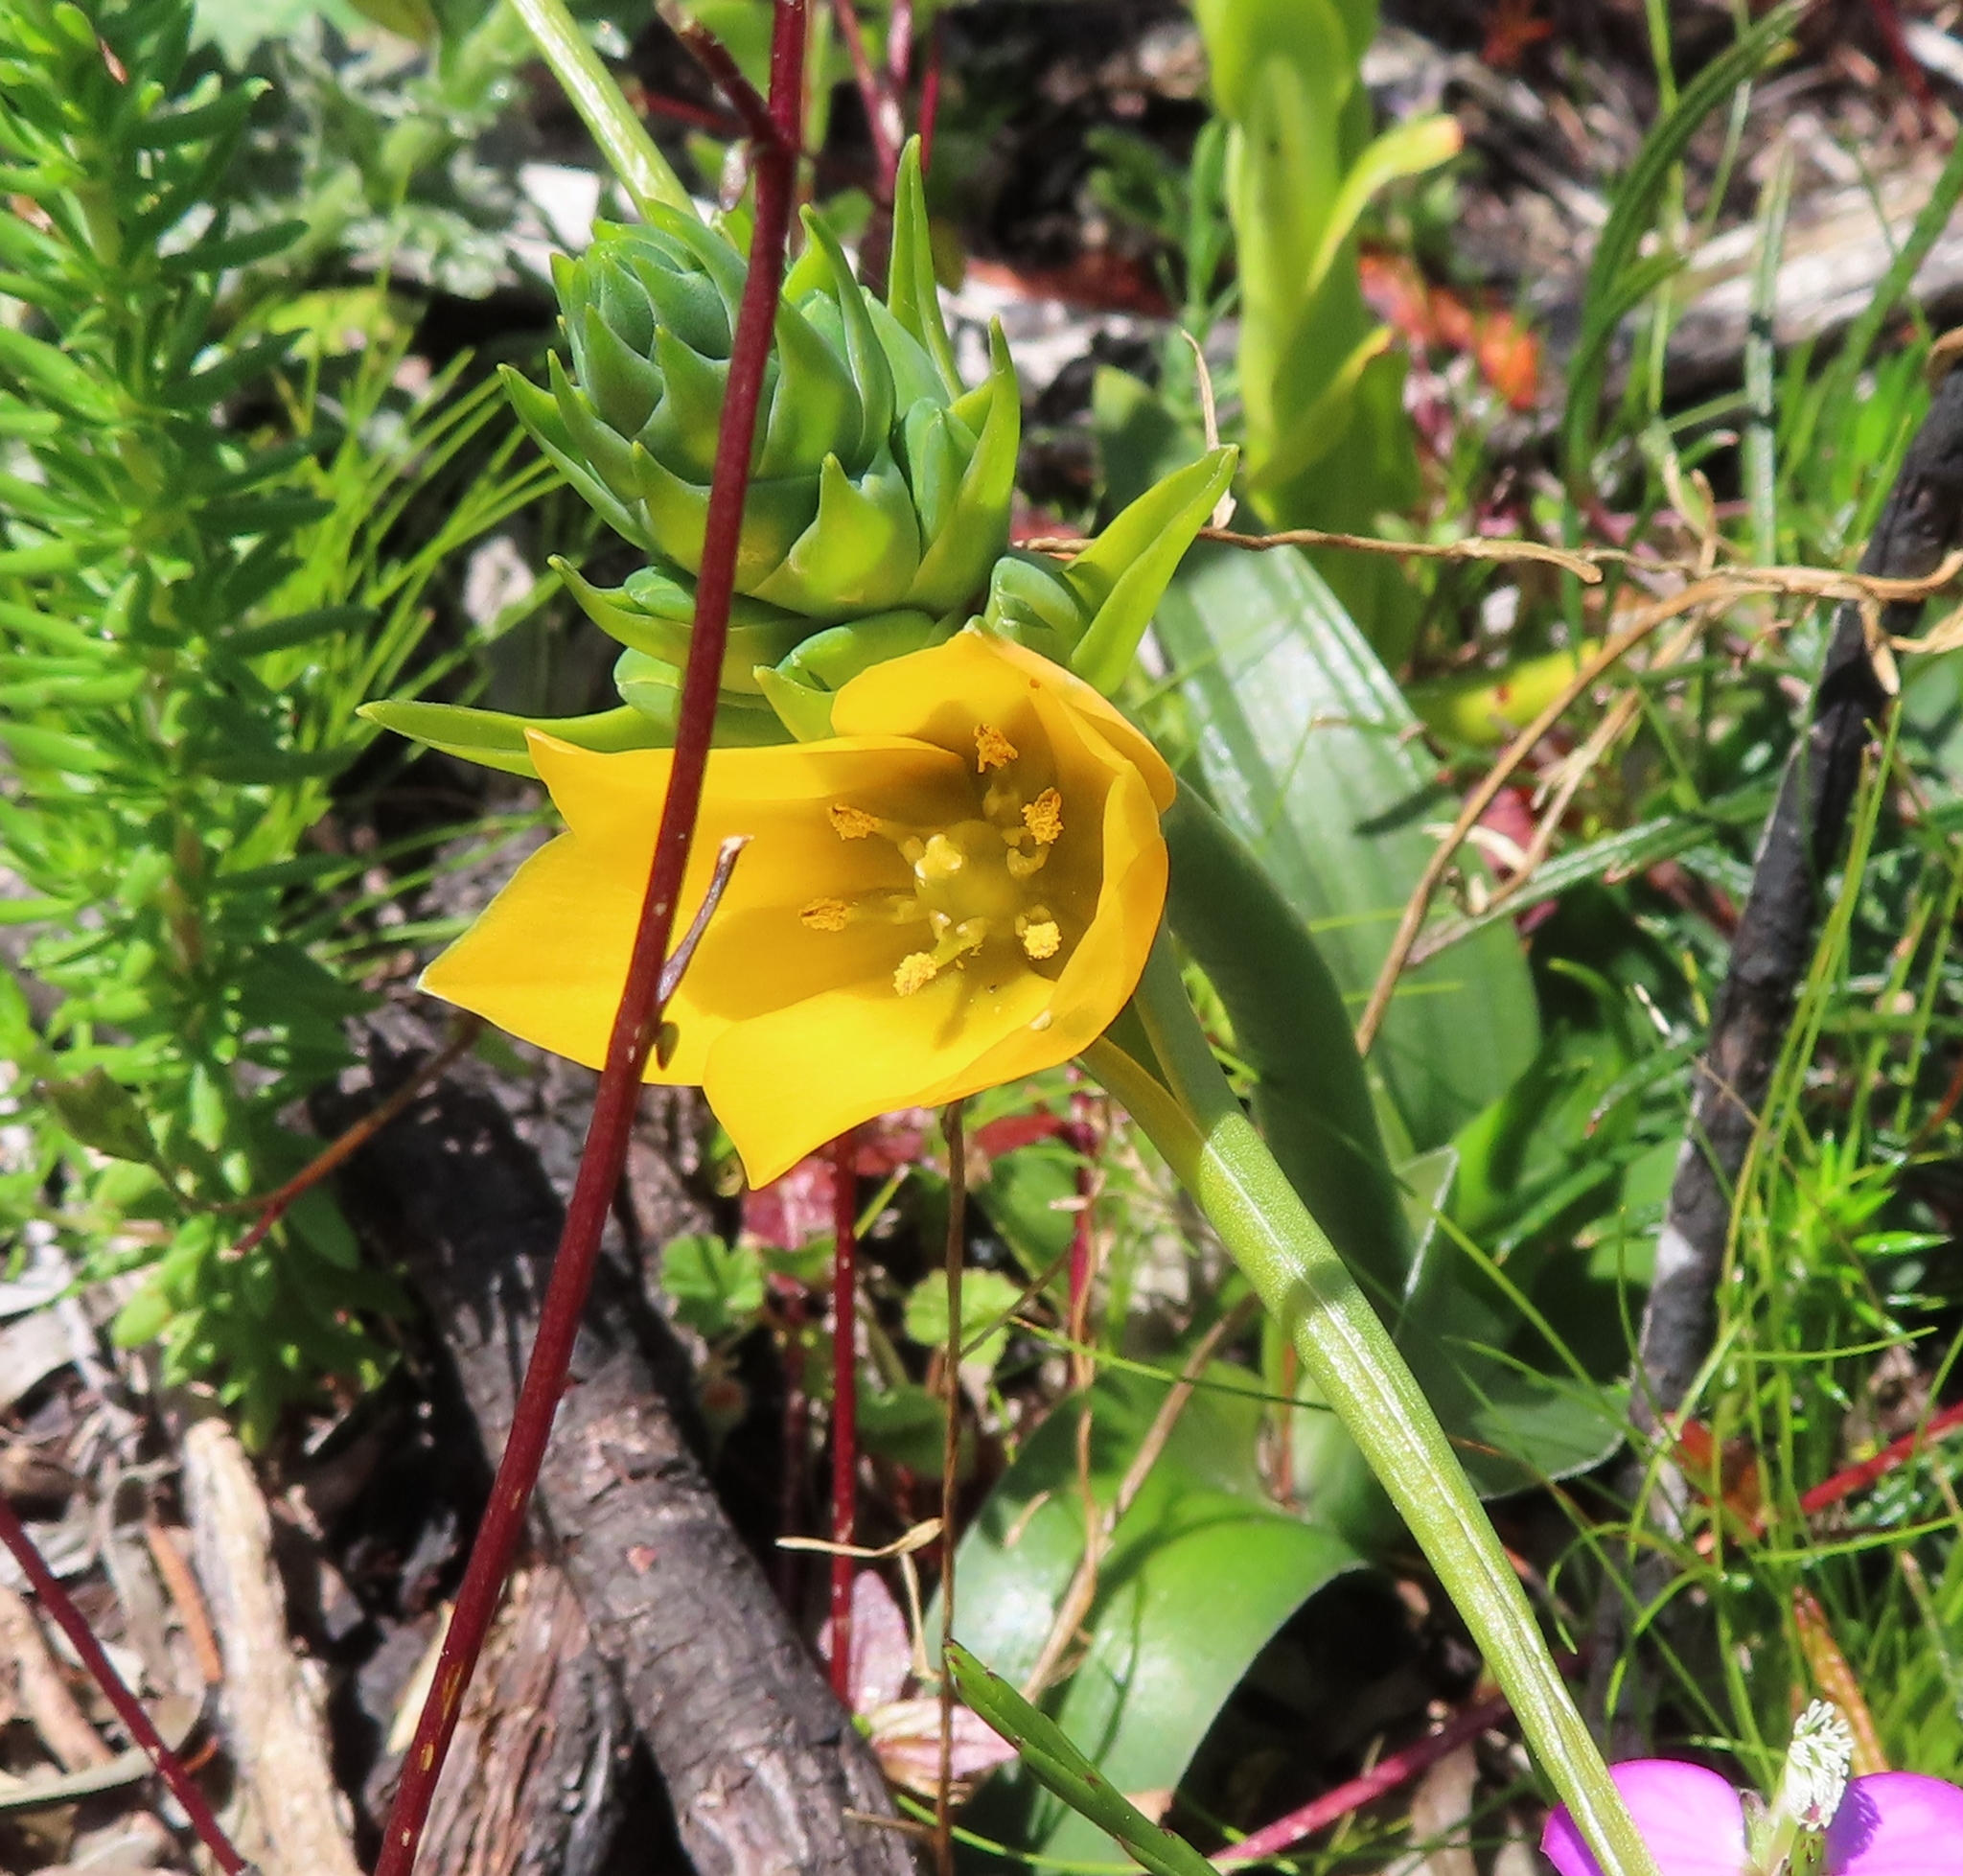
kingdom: Plantae
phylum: Tracheophyta
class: Liliopsida
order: Asparagales
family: Asparagaceae
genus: Ornithogalum
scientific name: Ornithogalum dubium
